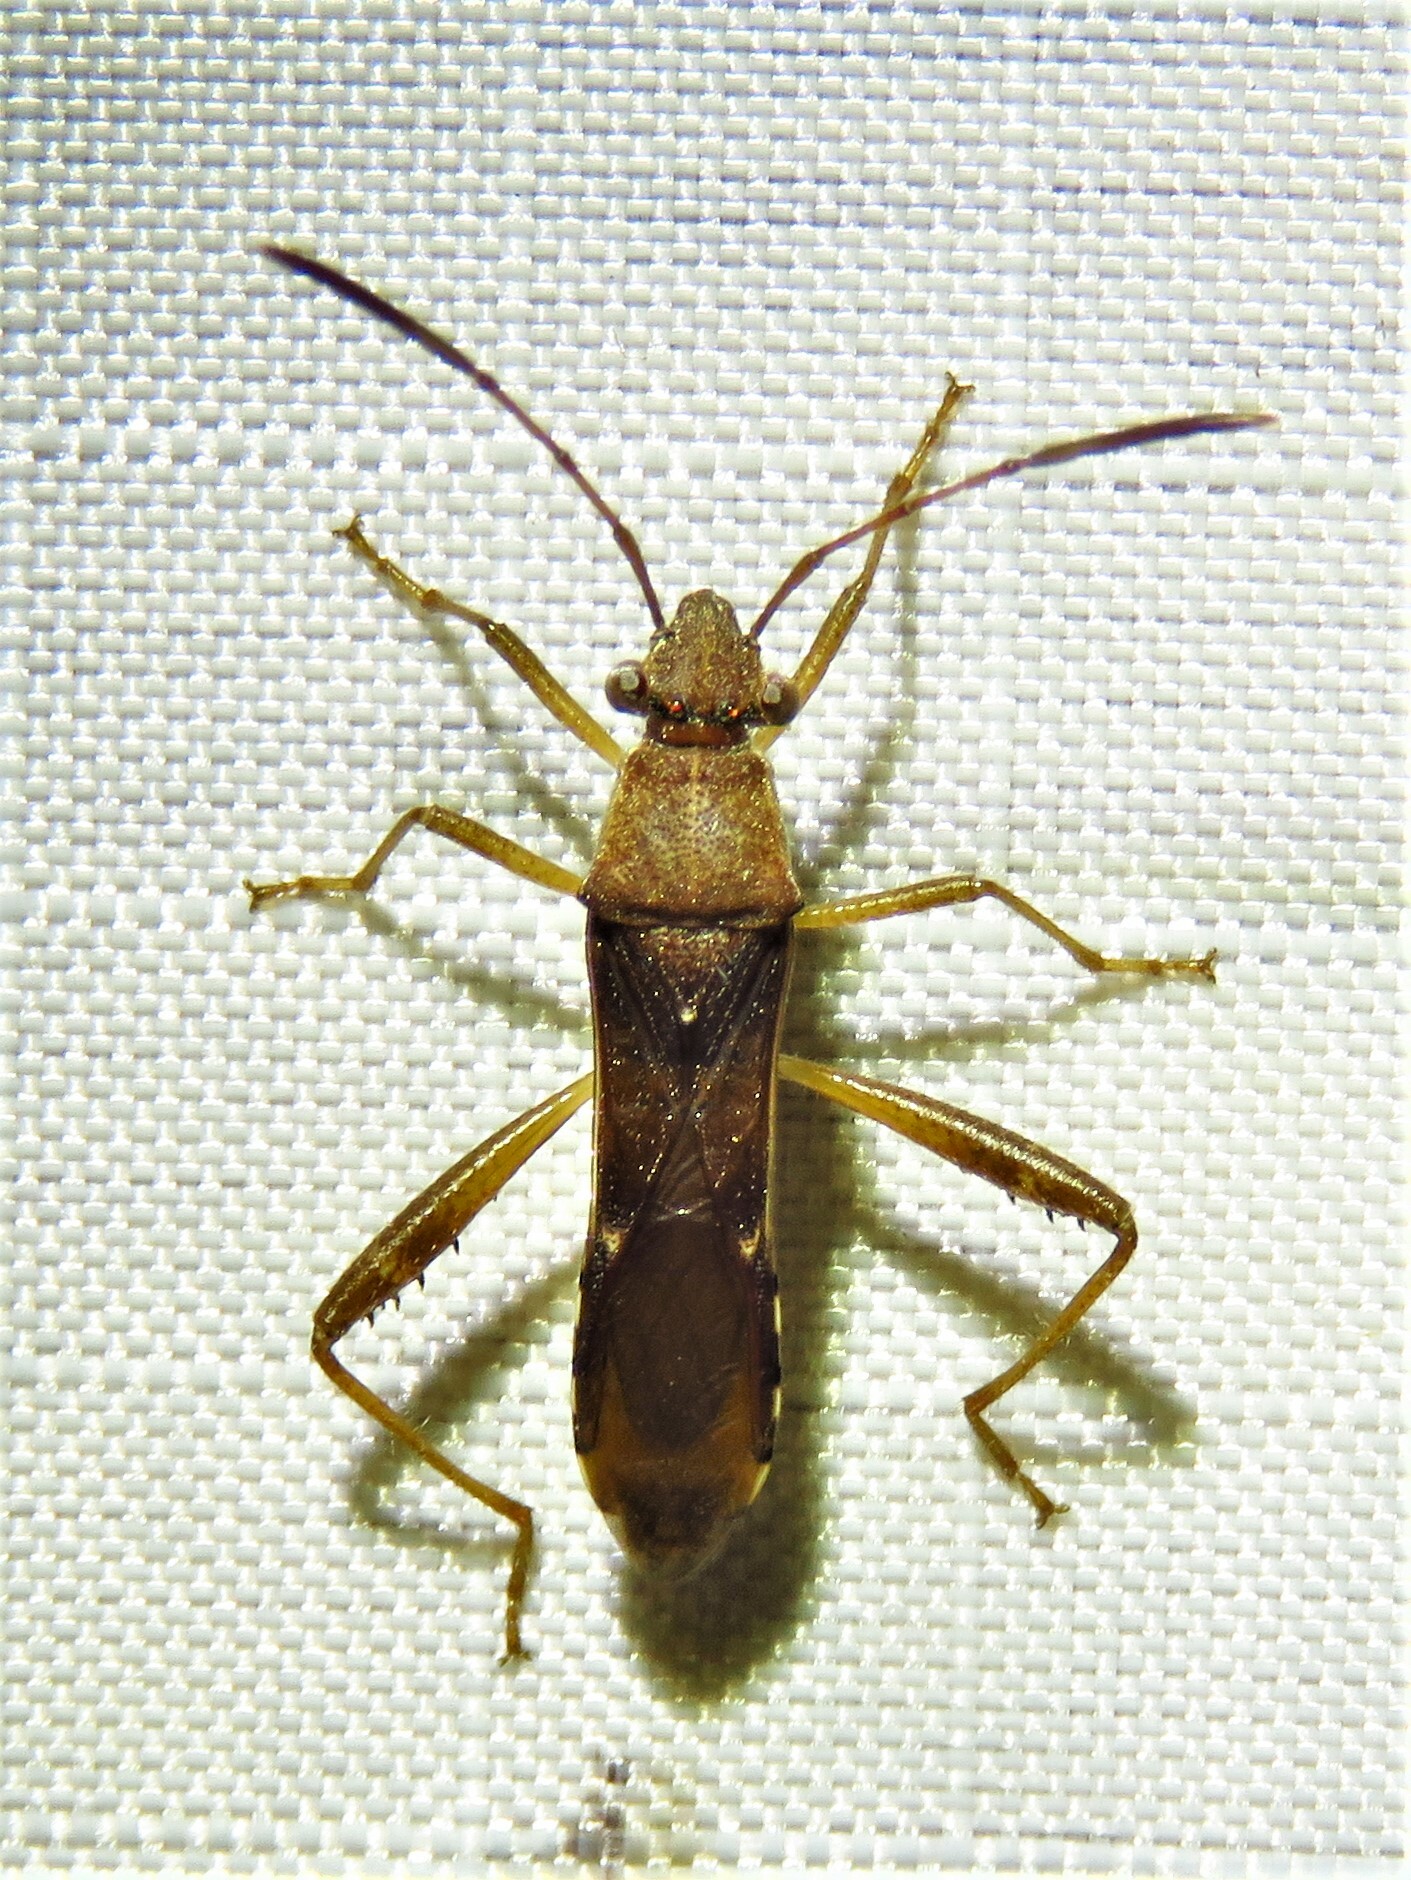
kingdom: Animalia
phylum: Arthropoda
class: Insecta
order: Hemiptera
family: Alydidae
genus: Burtinus
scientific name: Burtinus notatipennis
